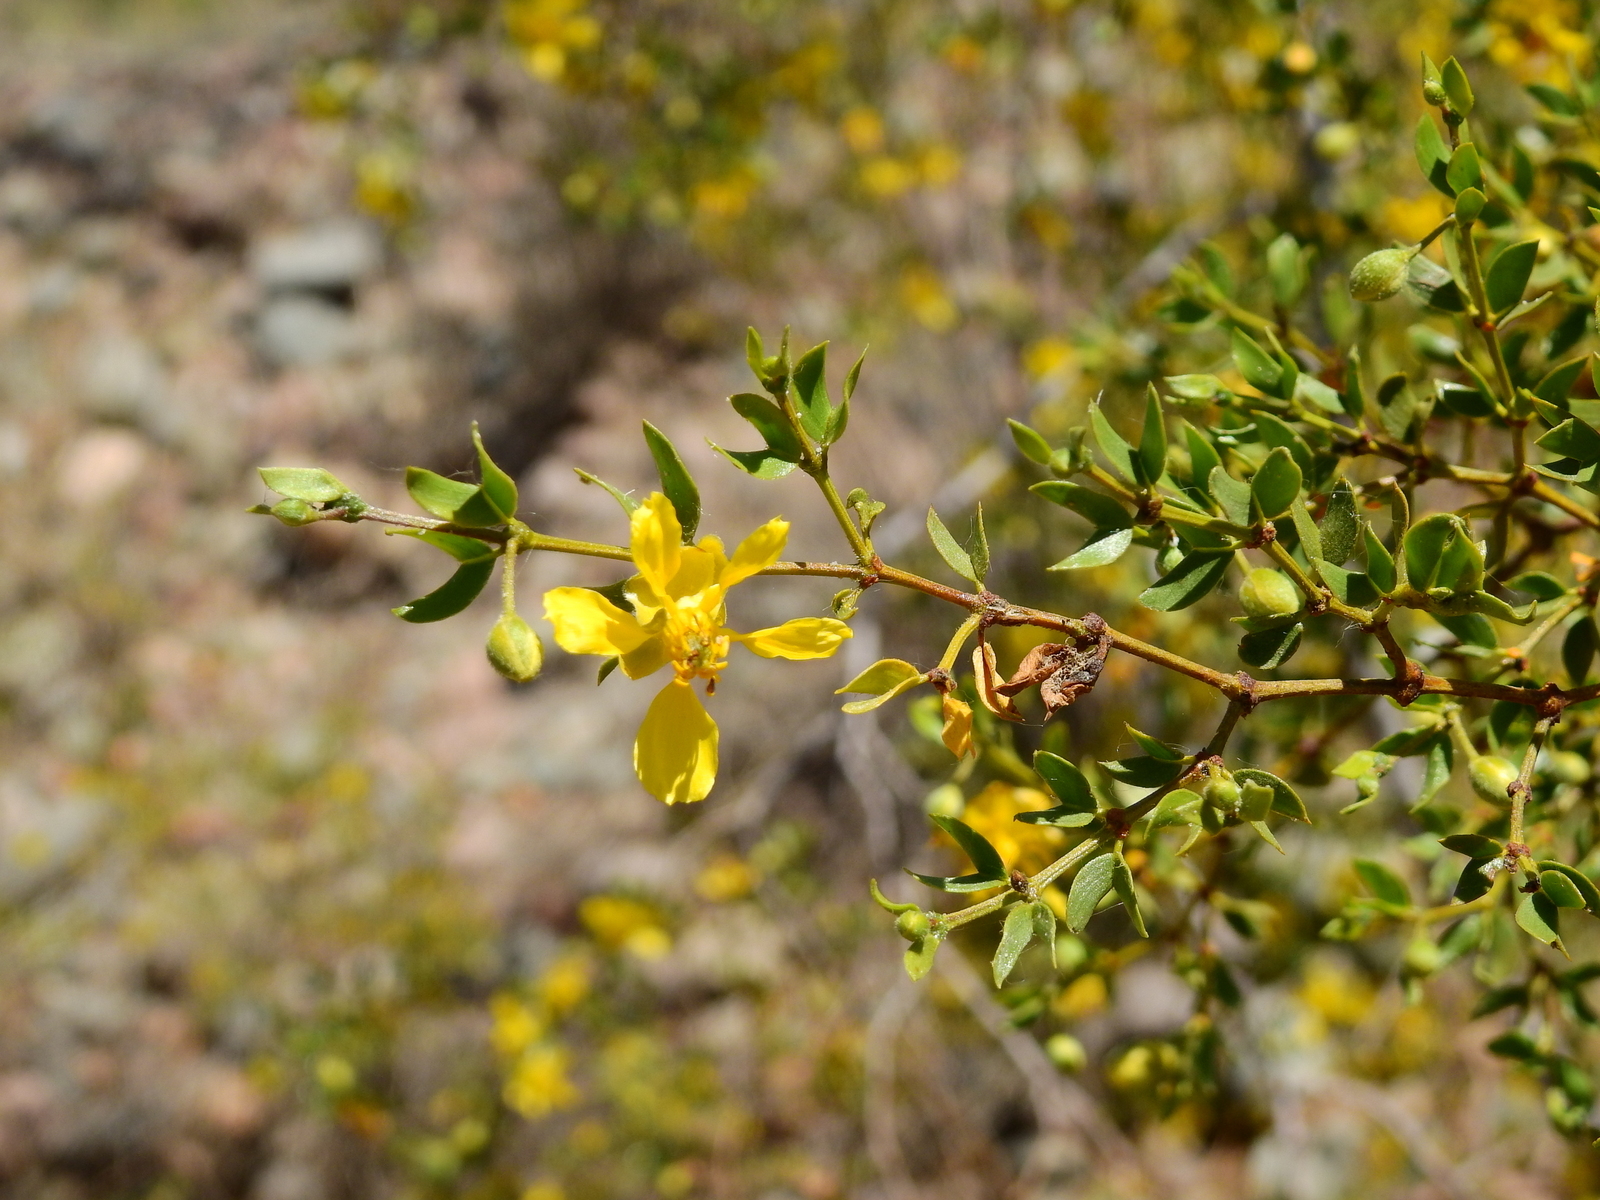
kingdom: Plantae
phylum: Tracheophyta
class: Magnoliopsida
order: Zygophyllales
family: Zygophyllaceae
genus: Larrea
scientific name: Larrea divaricata
